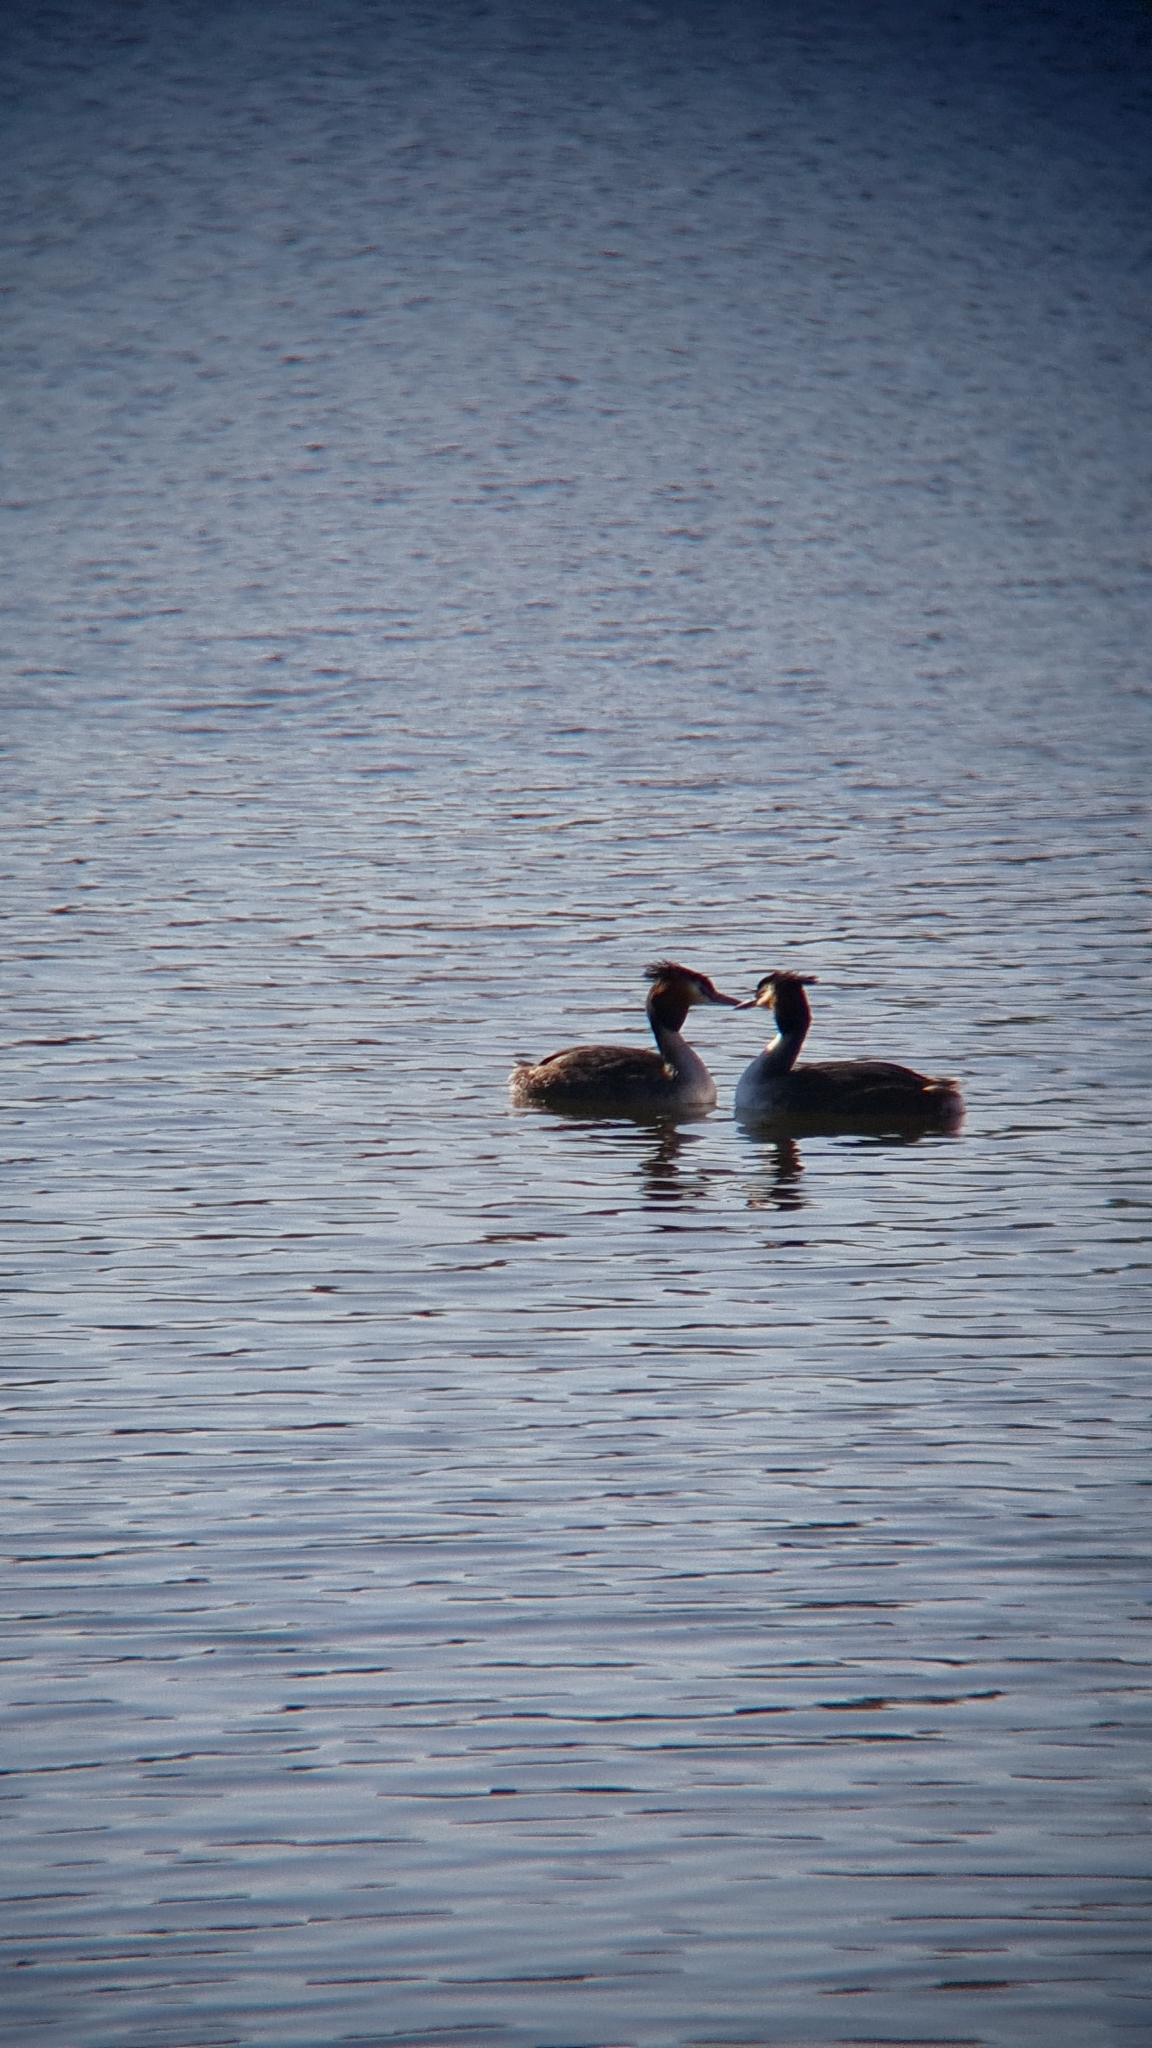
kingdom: Animalia
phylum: Chordata
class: Aves
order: Podicipediformes
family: Podicipedidae
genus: Podiceps
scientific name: Podiceps cristatus
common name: Great crested grebe
